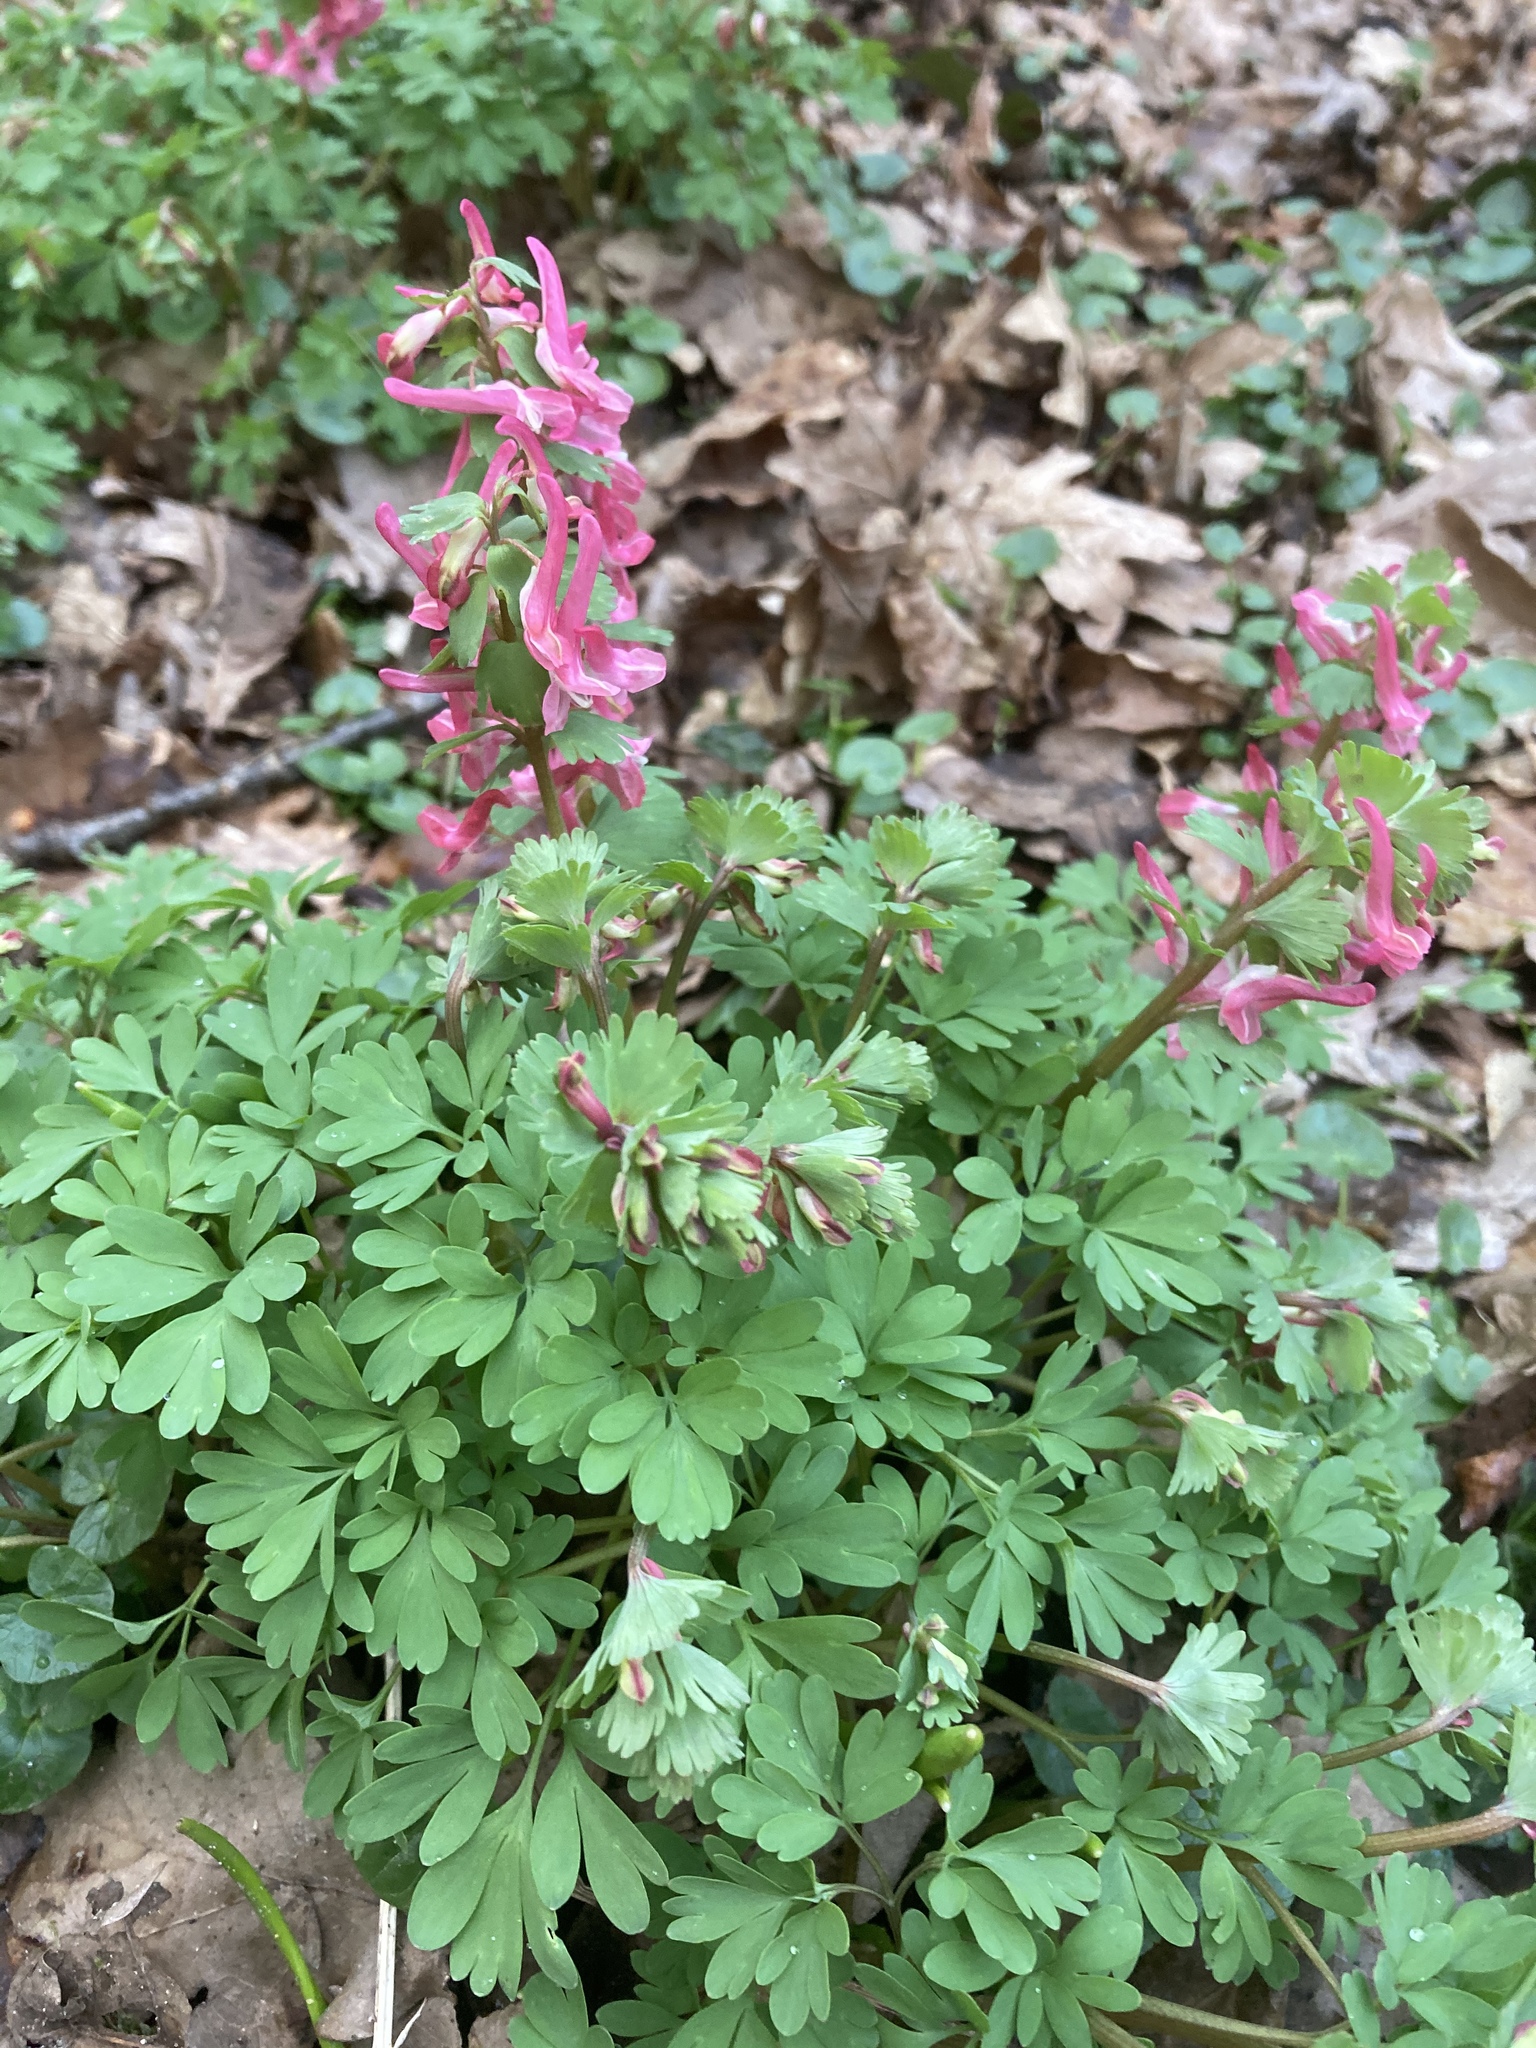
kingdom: Plantae
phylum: Tracheophyta
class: Magnoliopsida
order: Ranunculales
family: Papaveraceae
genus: Corydalis
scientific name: Corydalis solida
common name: Bird-in-a-bush
